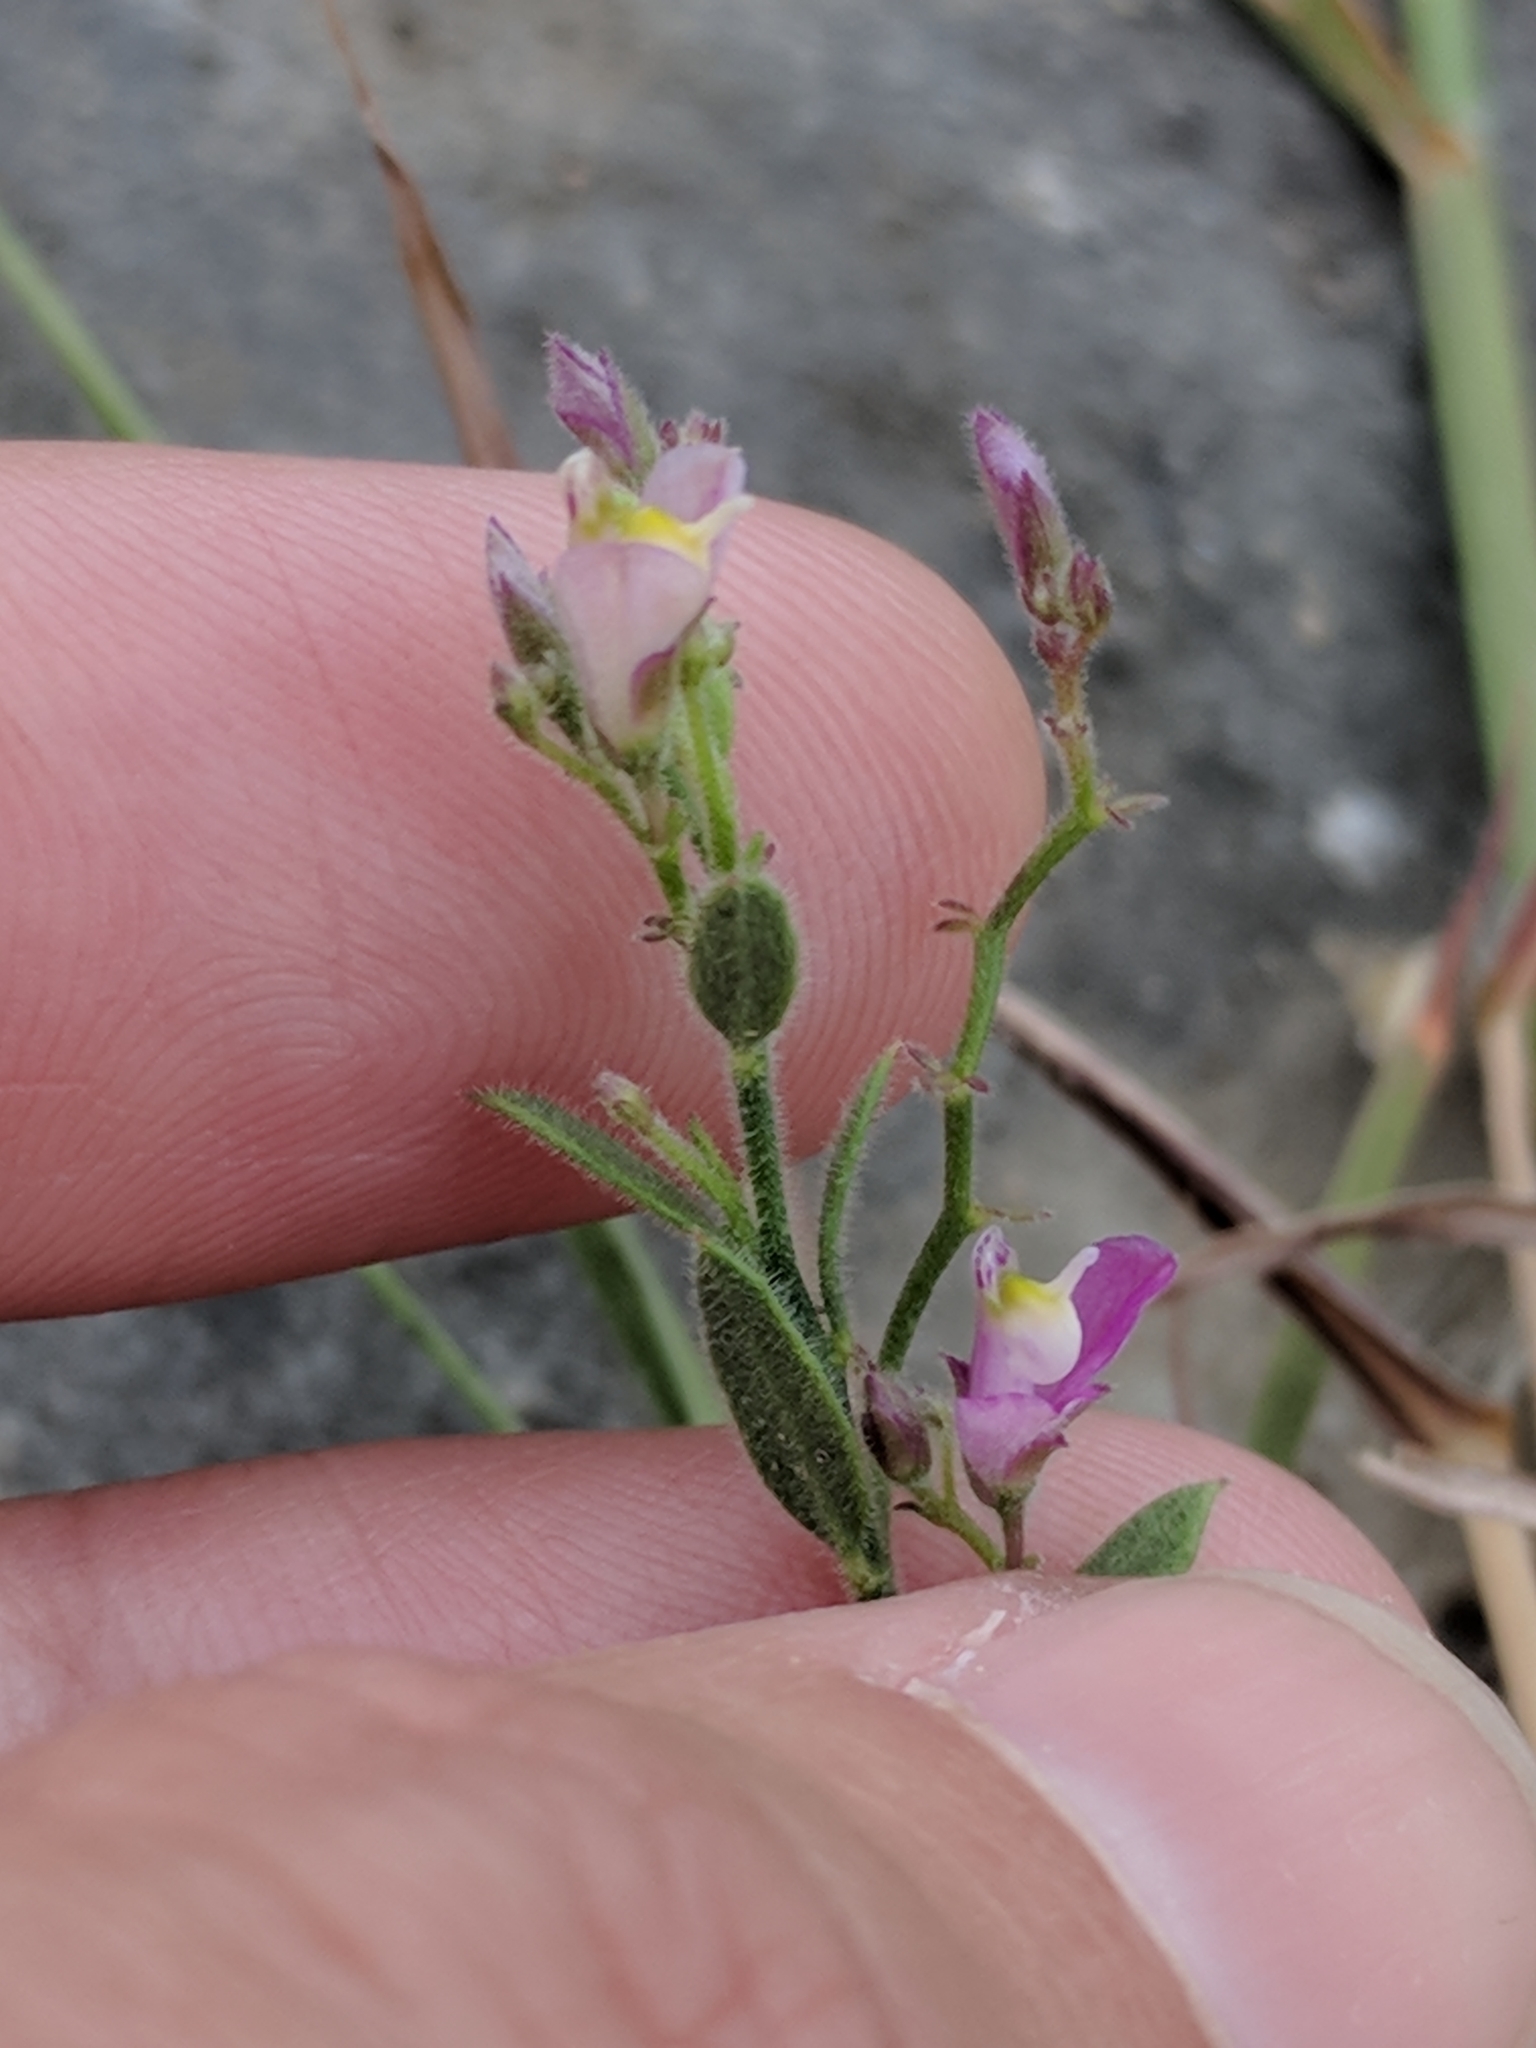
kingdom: Plantae
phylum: Tracheophyta
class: Magnoliopsida
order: Fabales
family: Polygalaceae
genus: Rhinotropis
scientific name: Rhinotropis lindheimeri
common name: Shrubby milkwort
